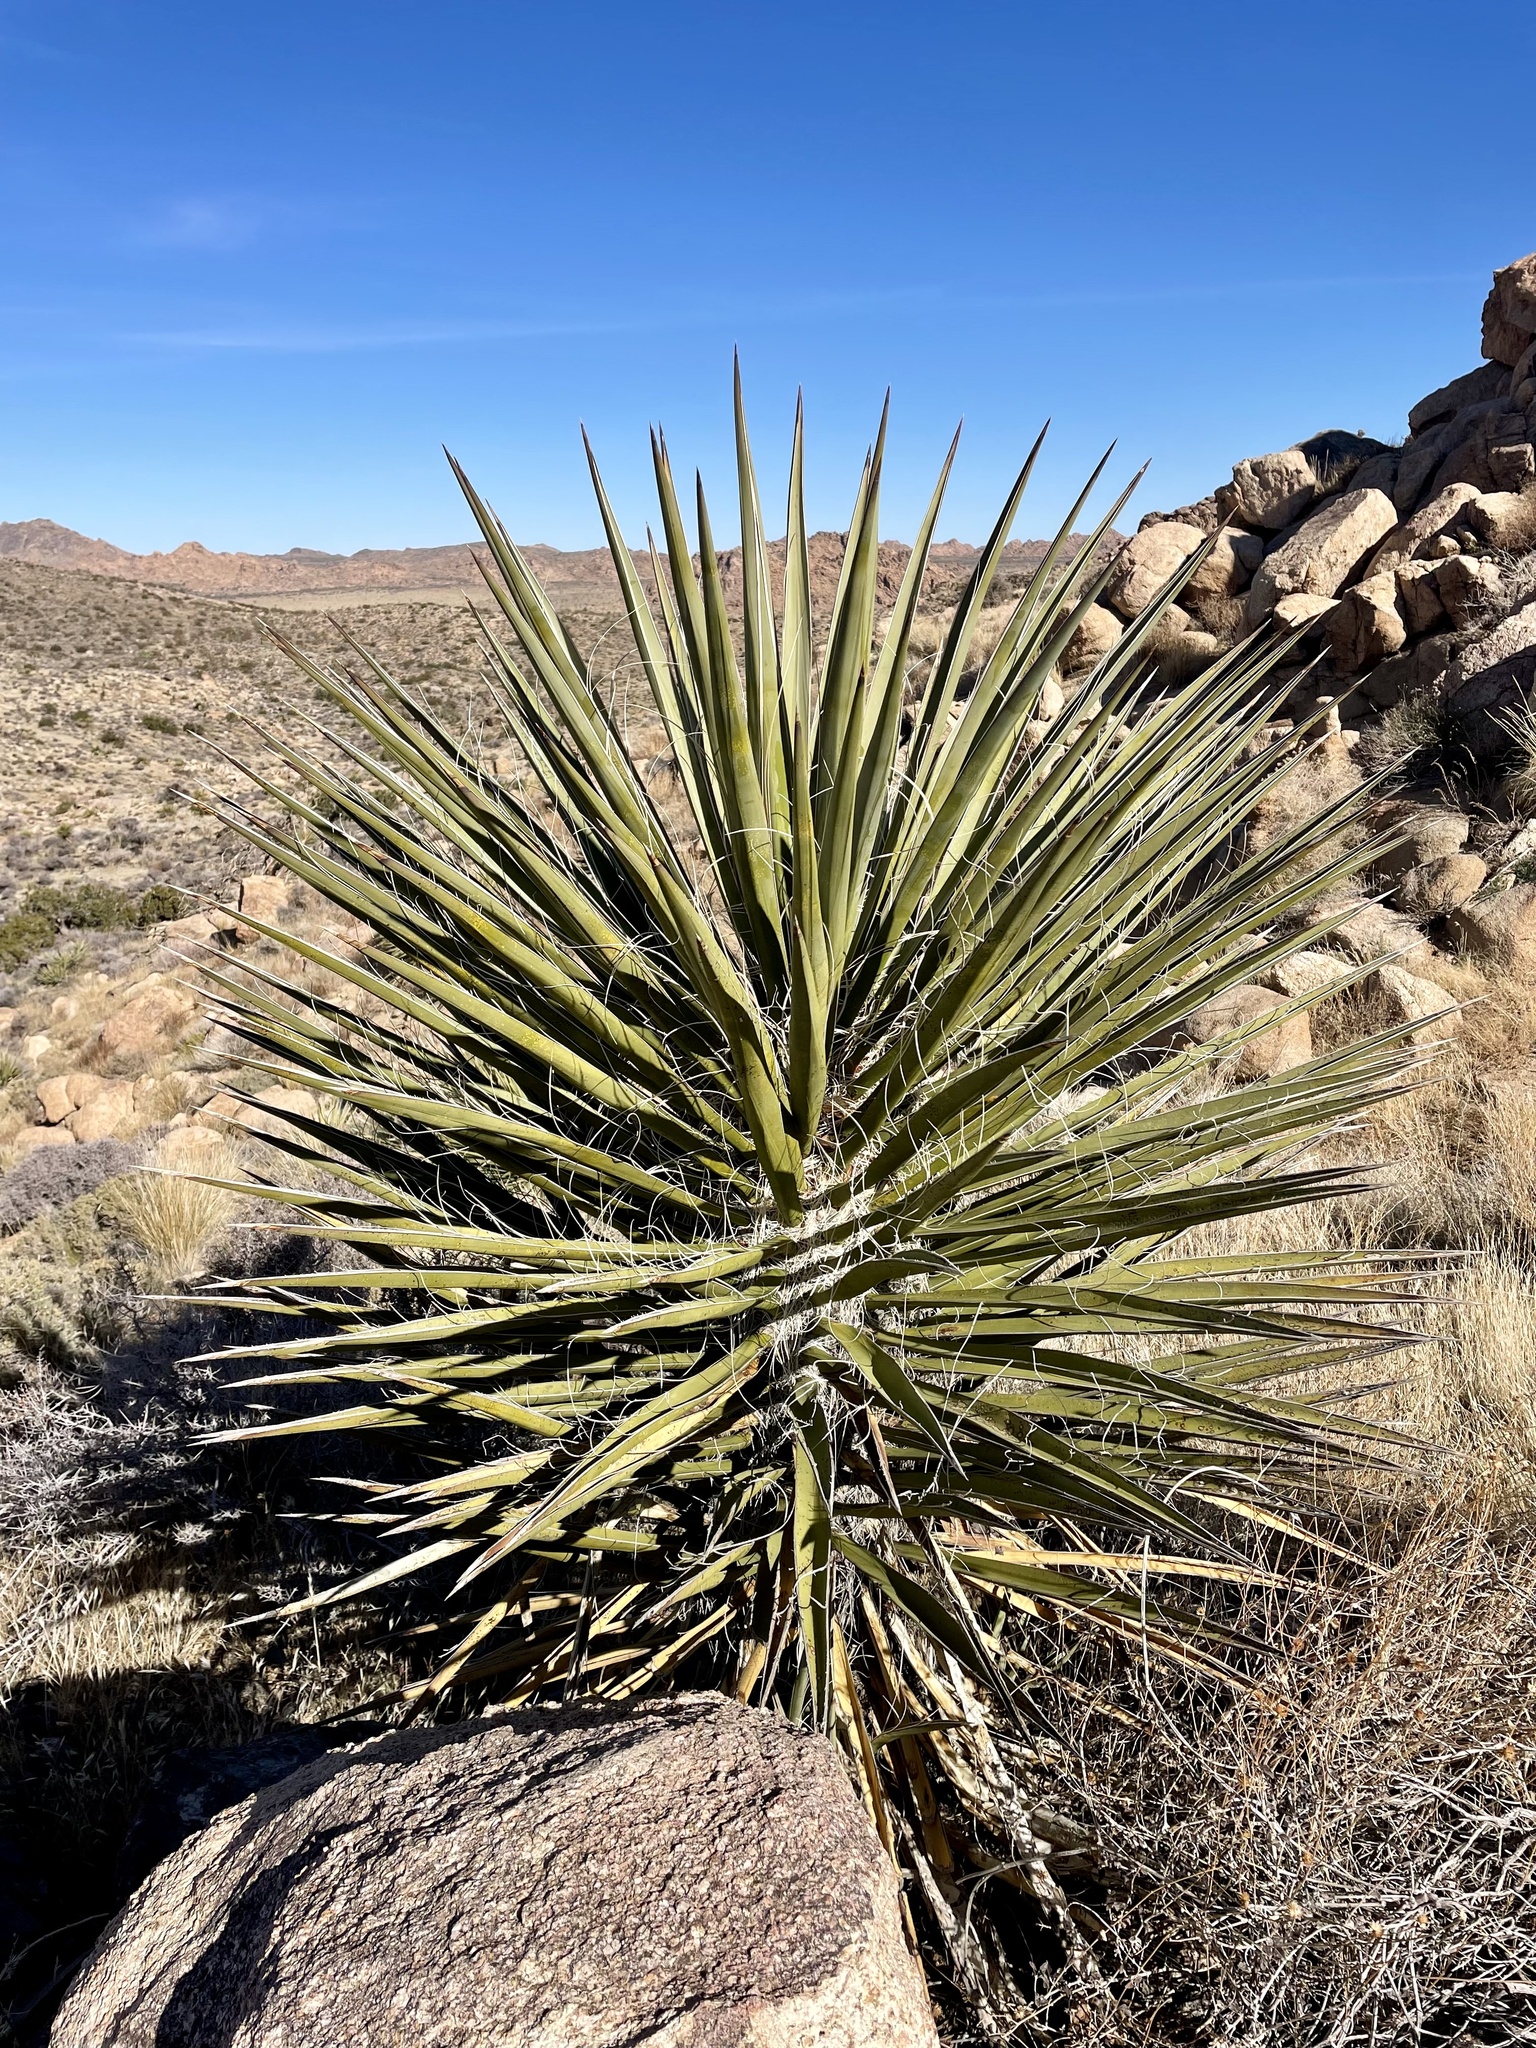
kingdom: Plantae
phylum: Tracheophyta
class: Liliopsida
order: Asparagales
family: Asparagaceae
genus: Yucca
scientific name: Yucca schidigera
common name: Mojave yucca
